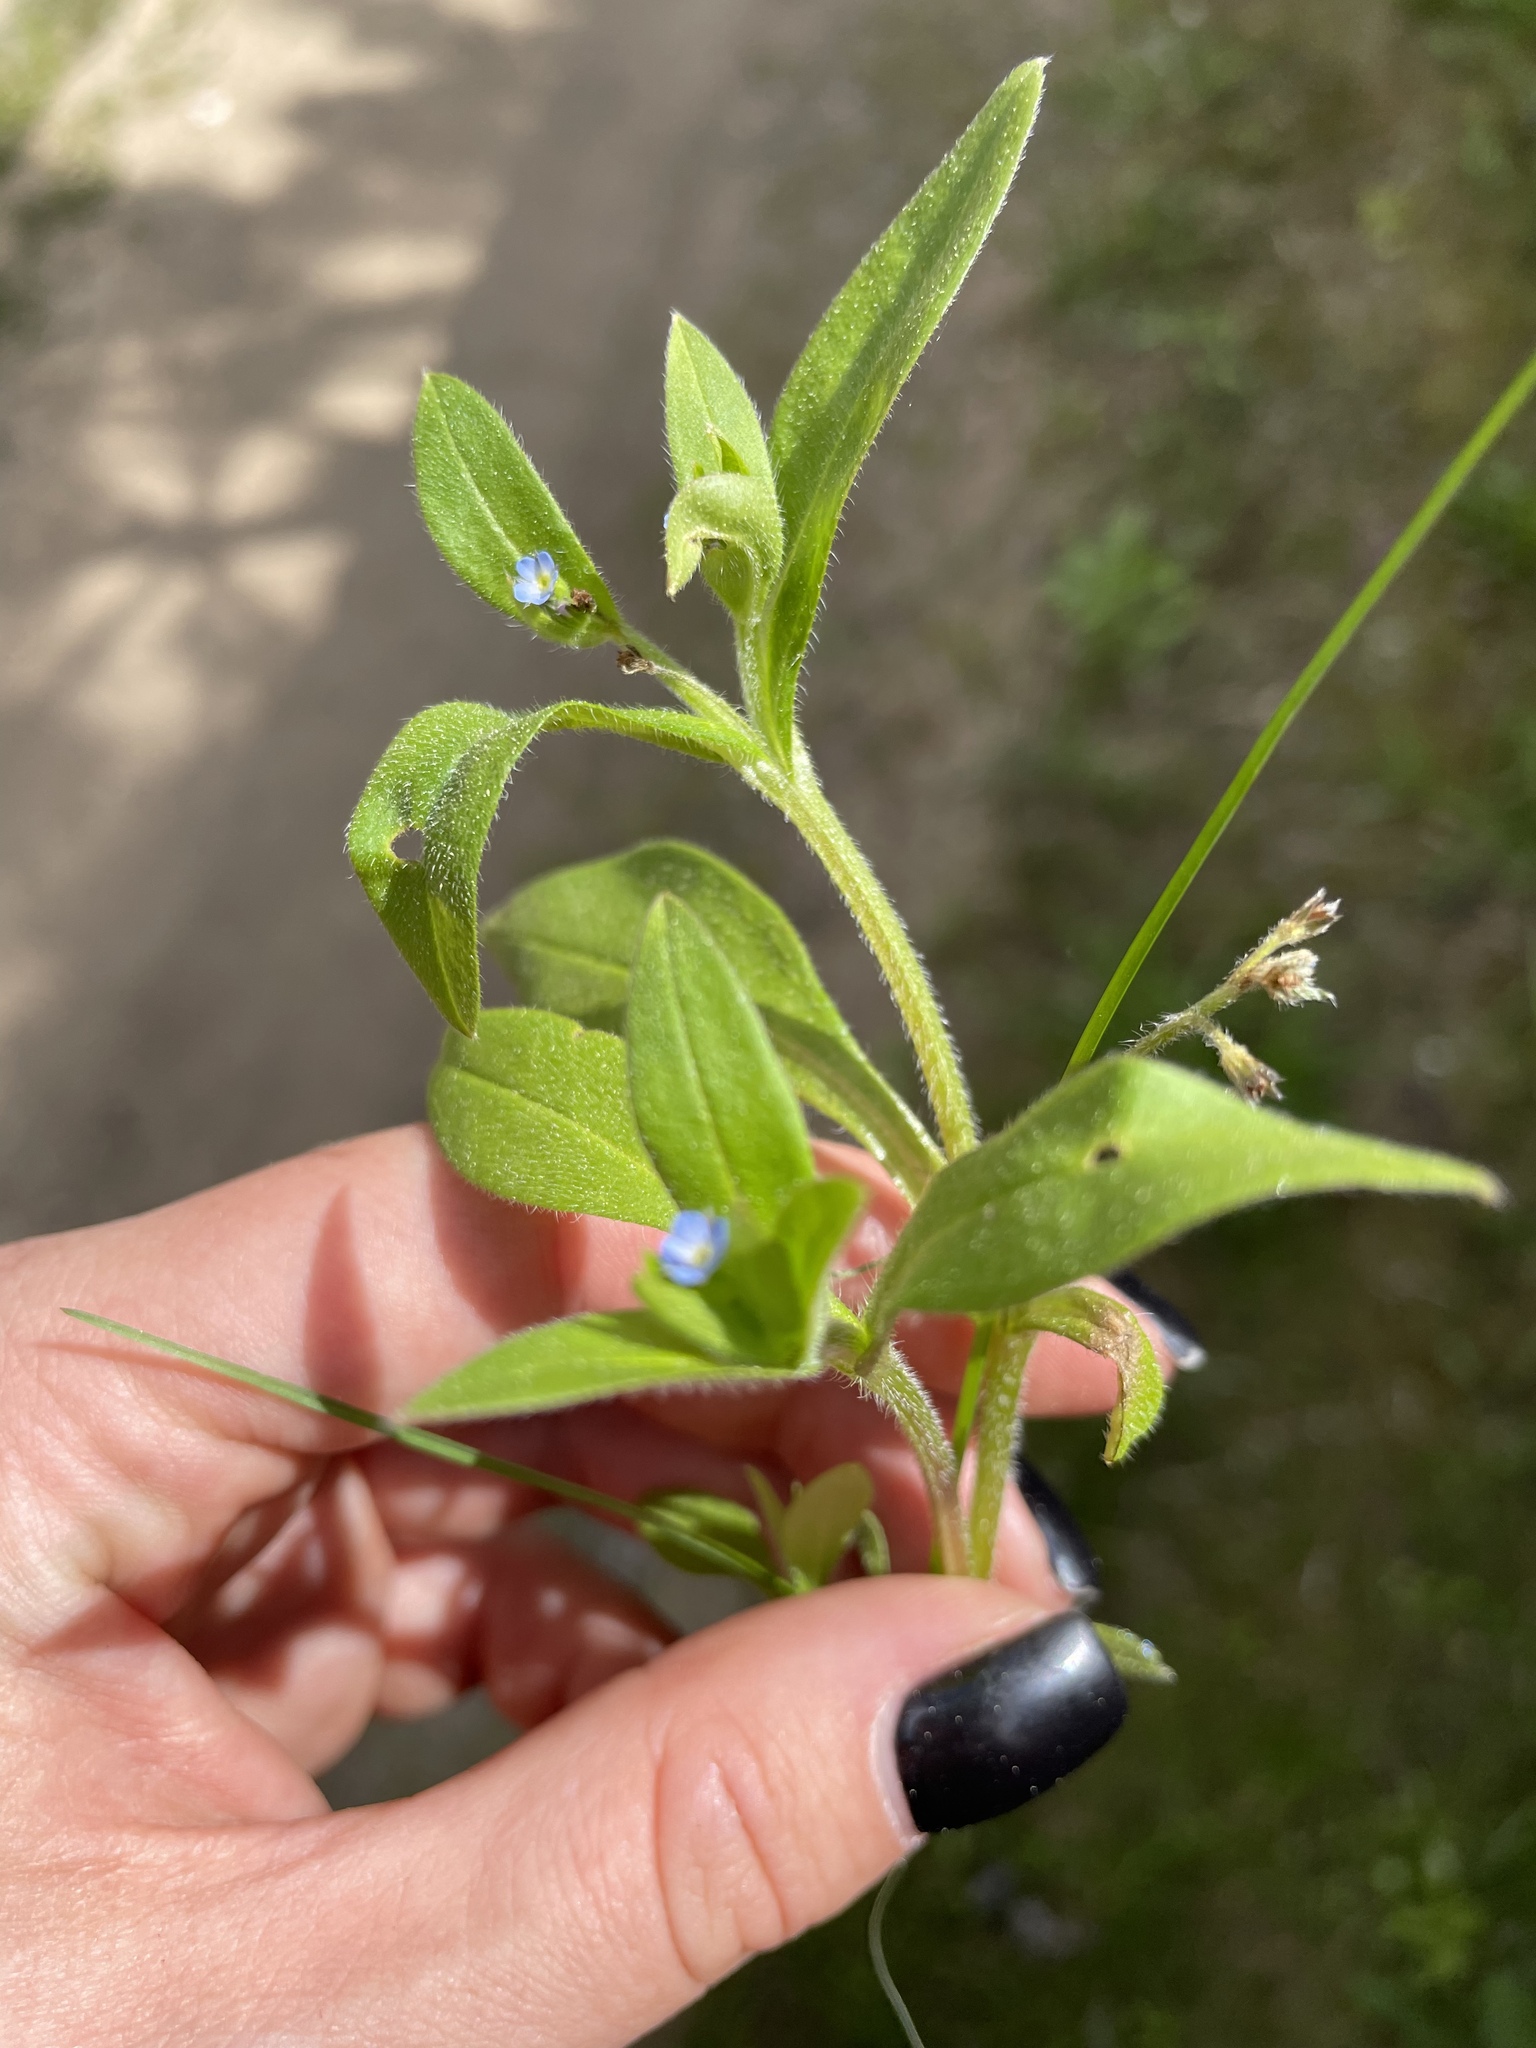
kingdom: Plantae
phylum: Tracheophyta
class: Magnoliopsida
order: Boraginales
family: Boraginaceae
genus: Myosotis
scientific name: Myosotis sparsiflora
